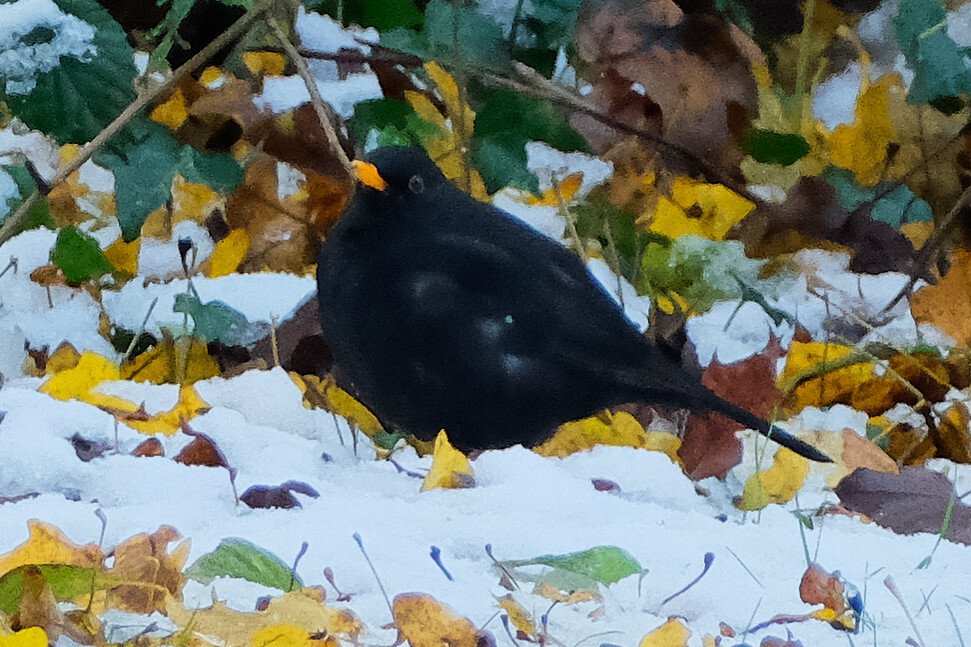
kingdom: Animalia
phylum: Chordata
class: Aves
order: Passeriformes
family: Turdidae
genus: Turdus
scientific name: Turdus merula
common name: Common blackbird
